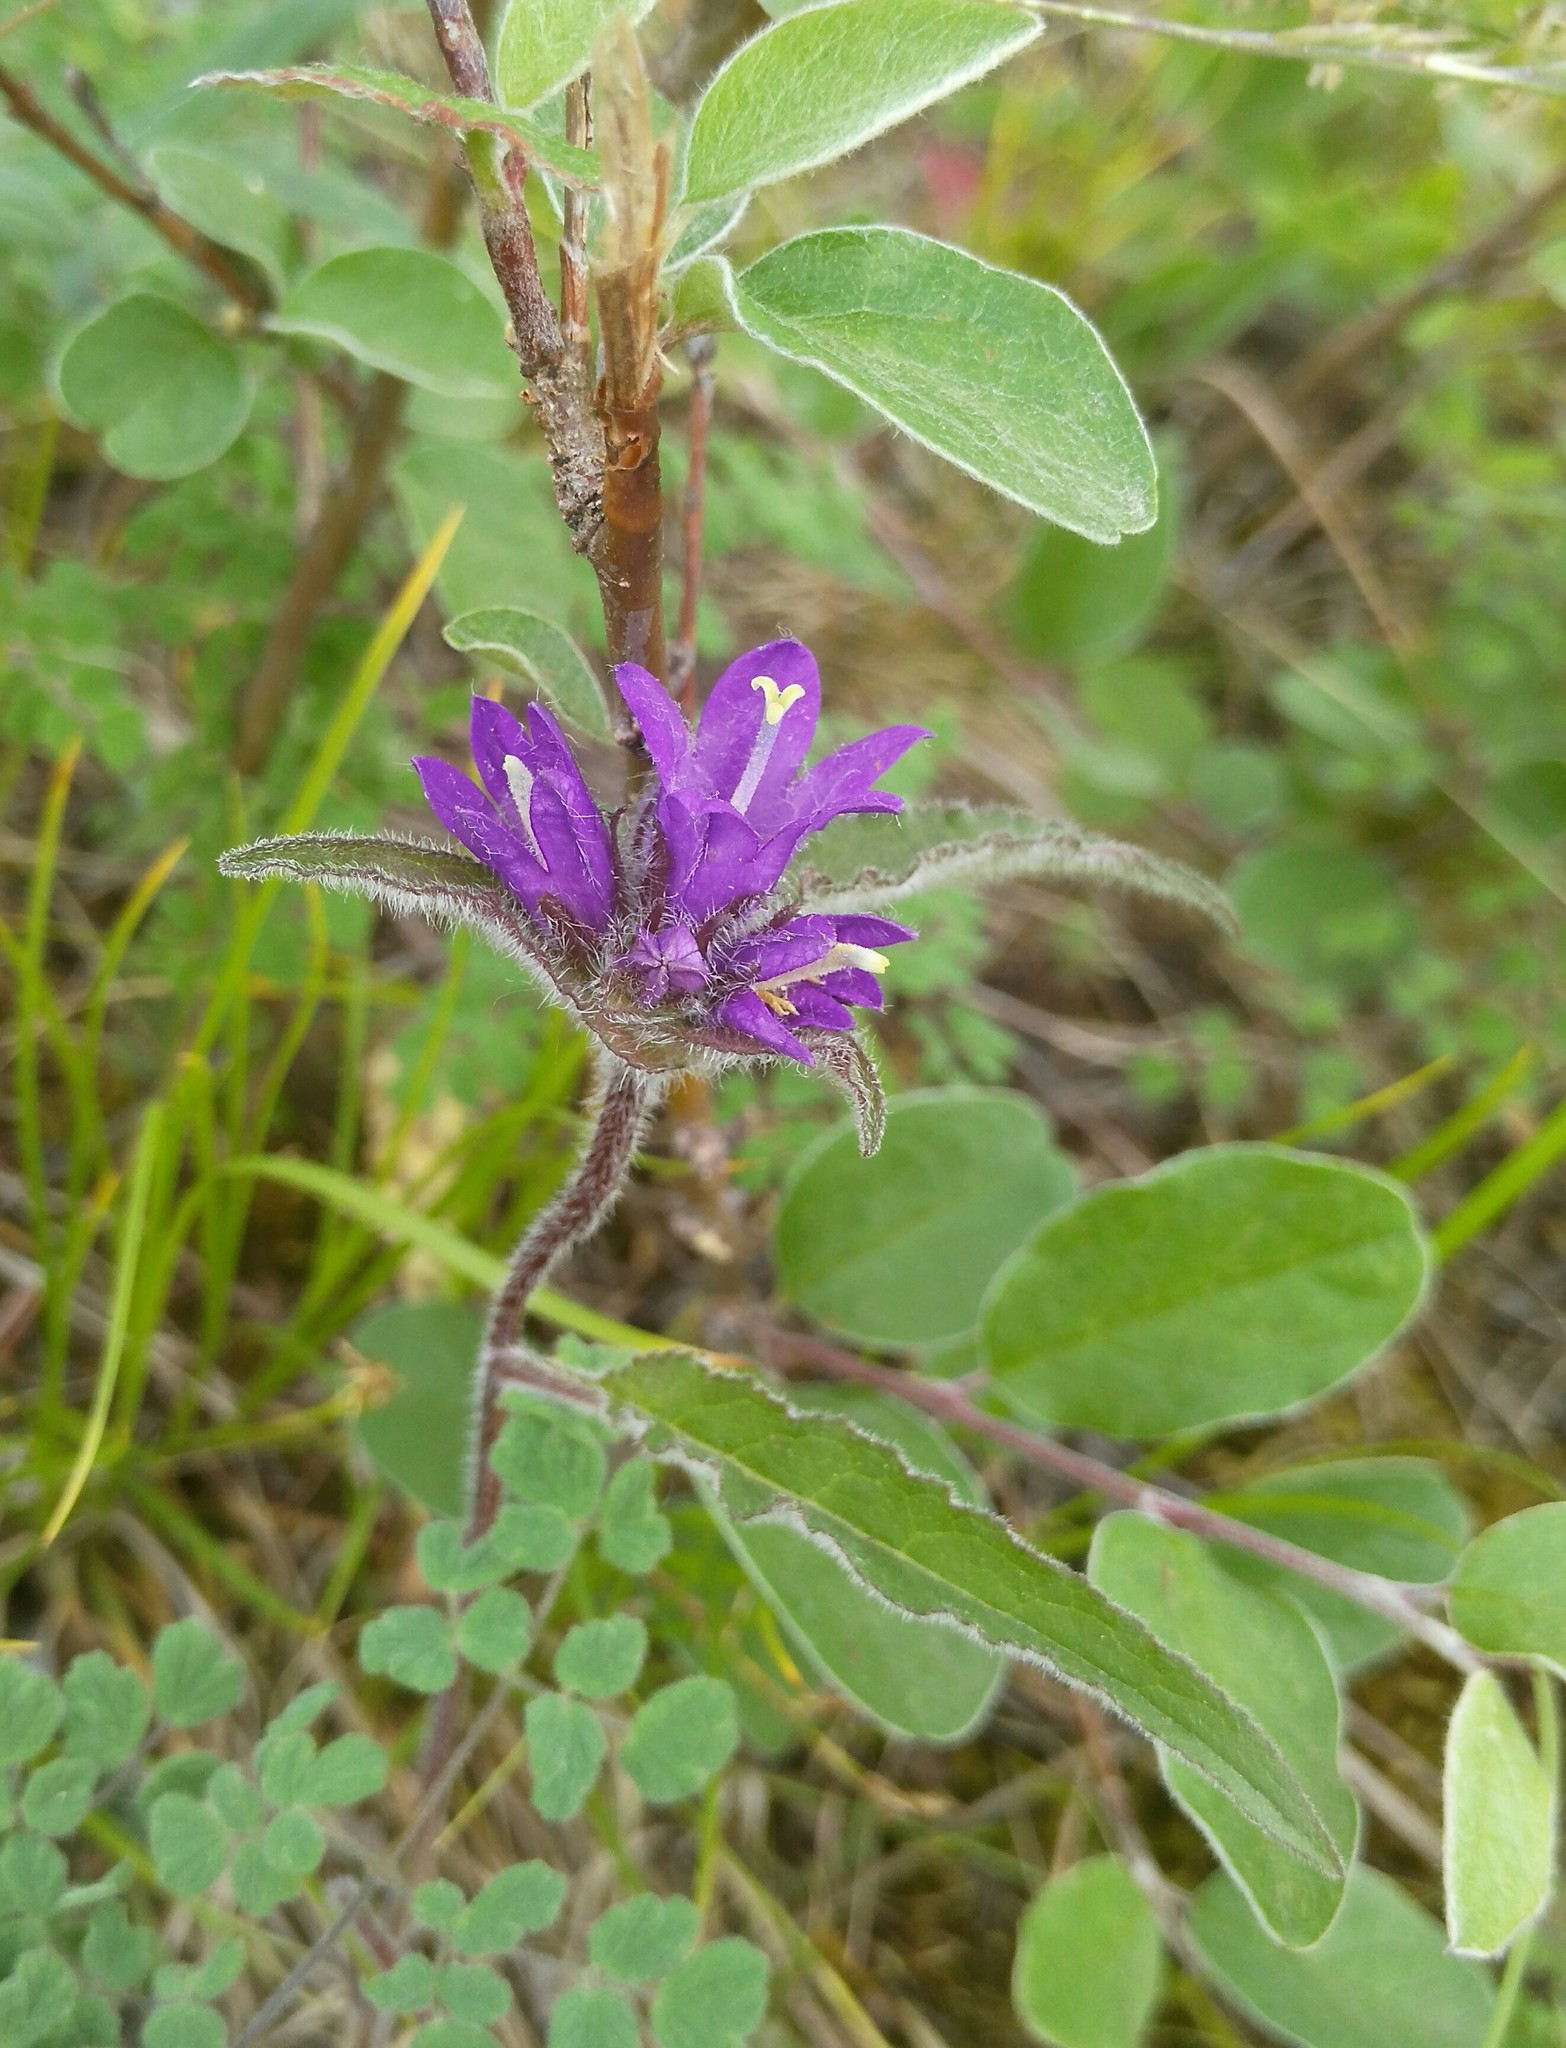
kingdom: Plantae
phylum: Tracheophyta
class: Magnoliopsida
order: Asterales
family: Campanulaceae
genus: Campanula
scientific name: Campanula glomerata
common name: Clustered bellflower
